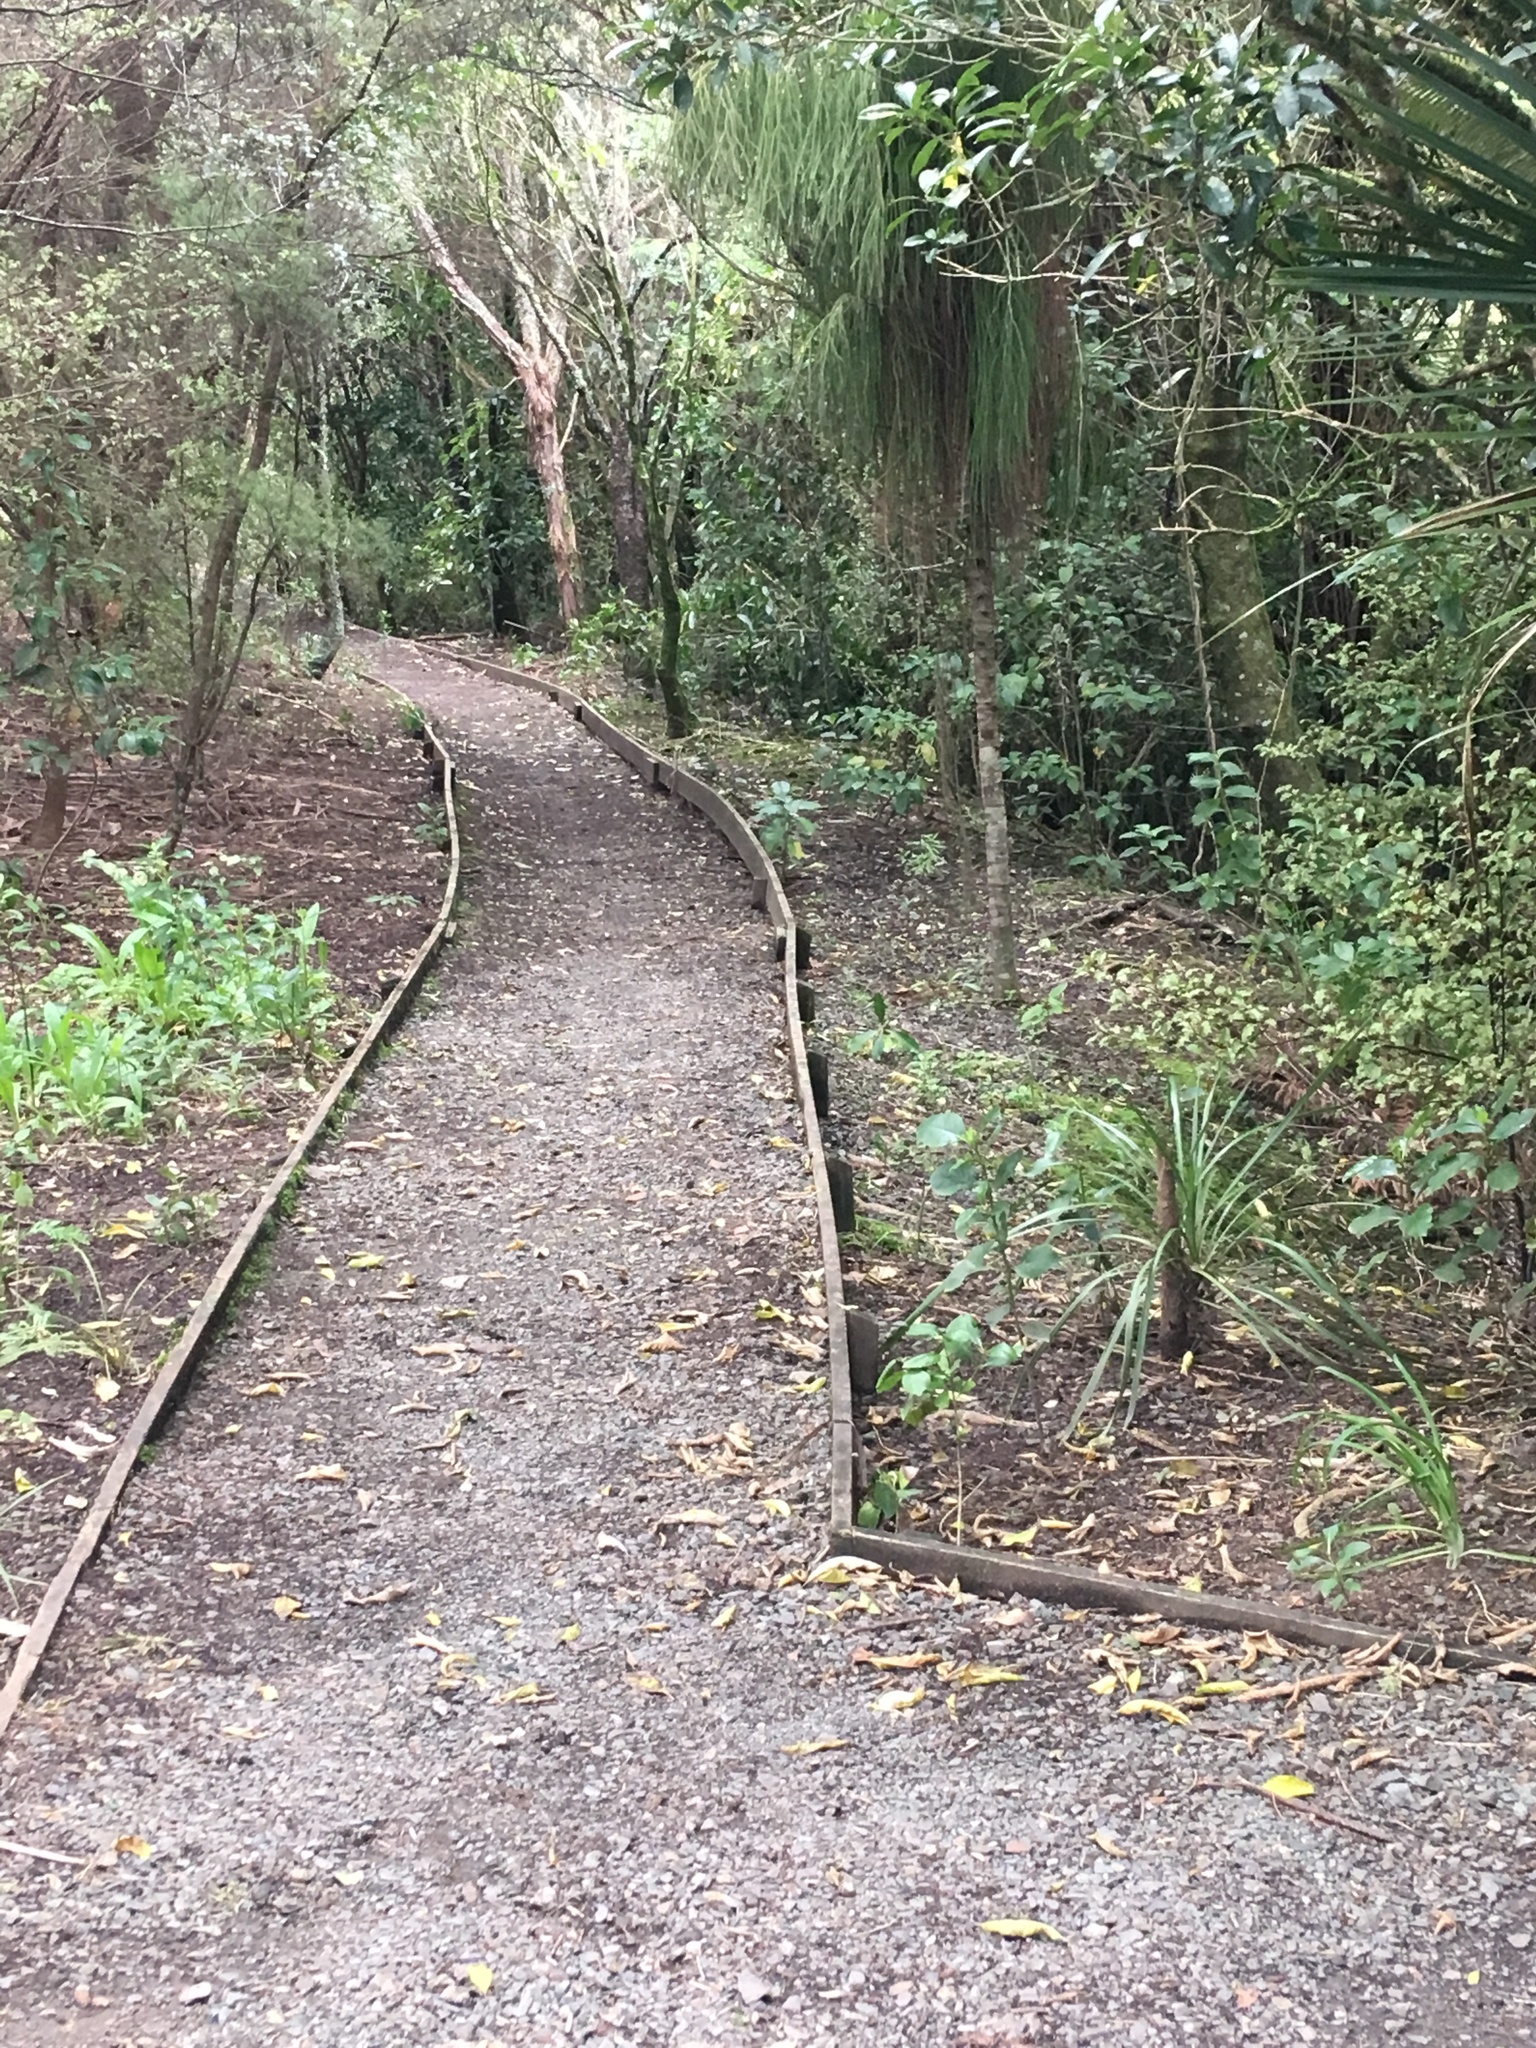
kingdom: Plantae
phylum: Tracheophyta
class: Pinopsida
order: Pinales
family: Podocarpaceae
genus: Dacrydium
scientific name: Dacrydium cupressinum
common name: Red pine
